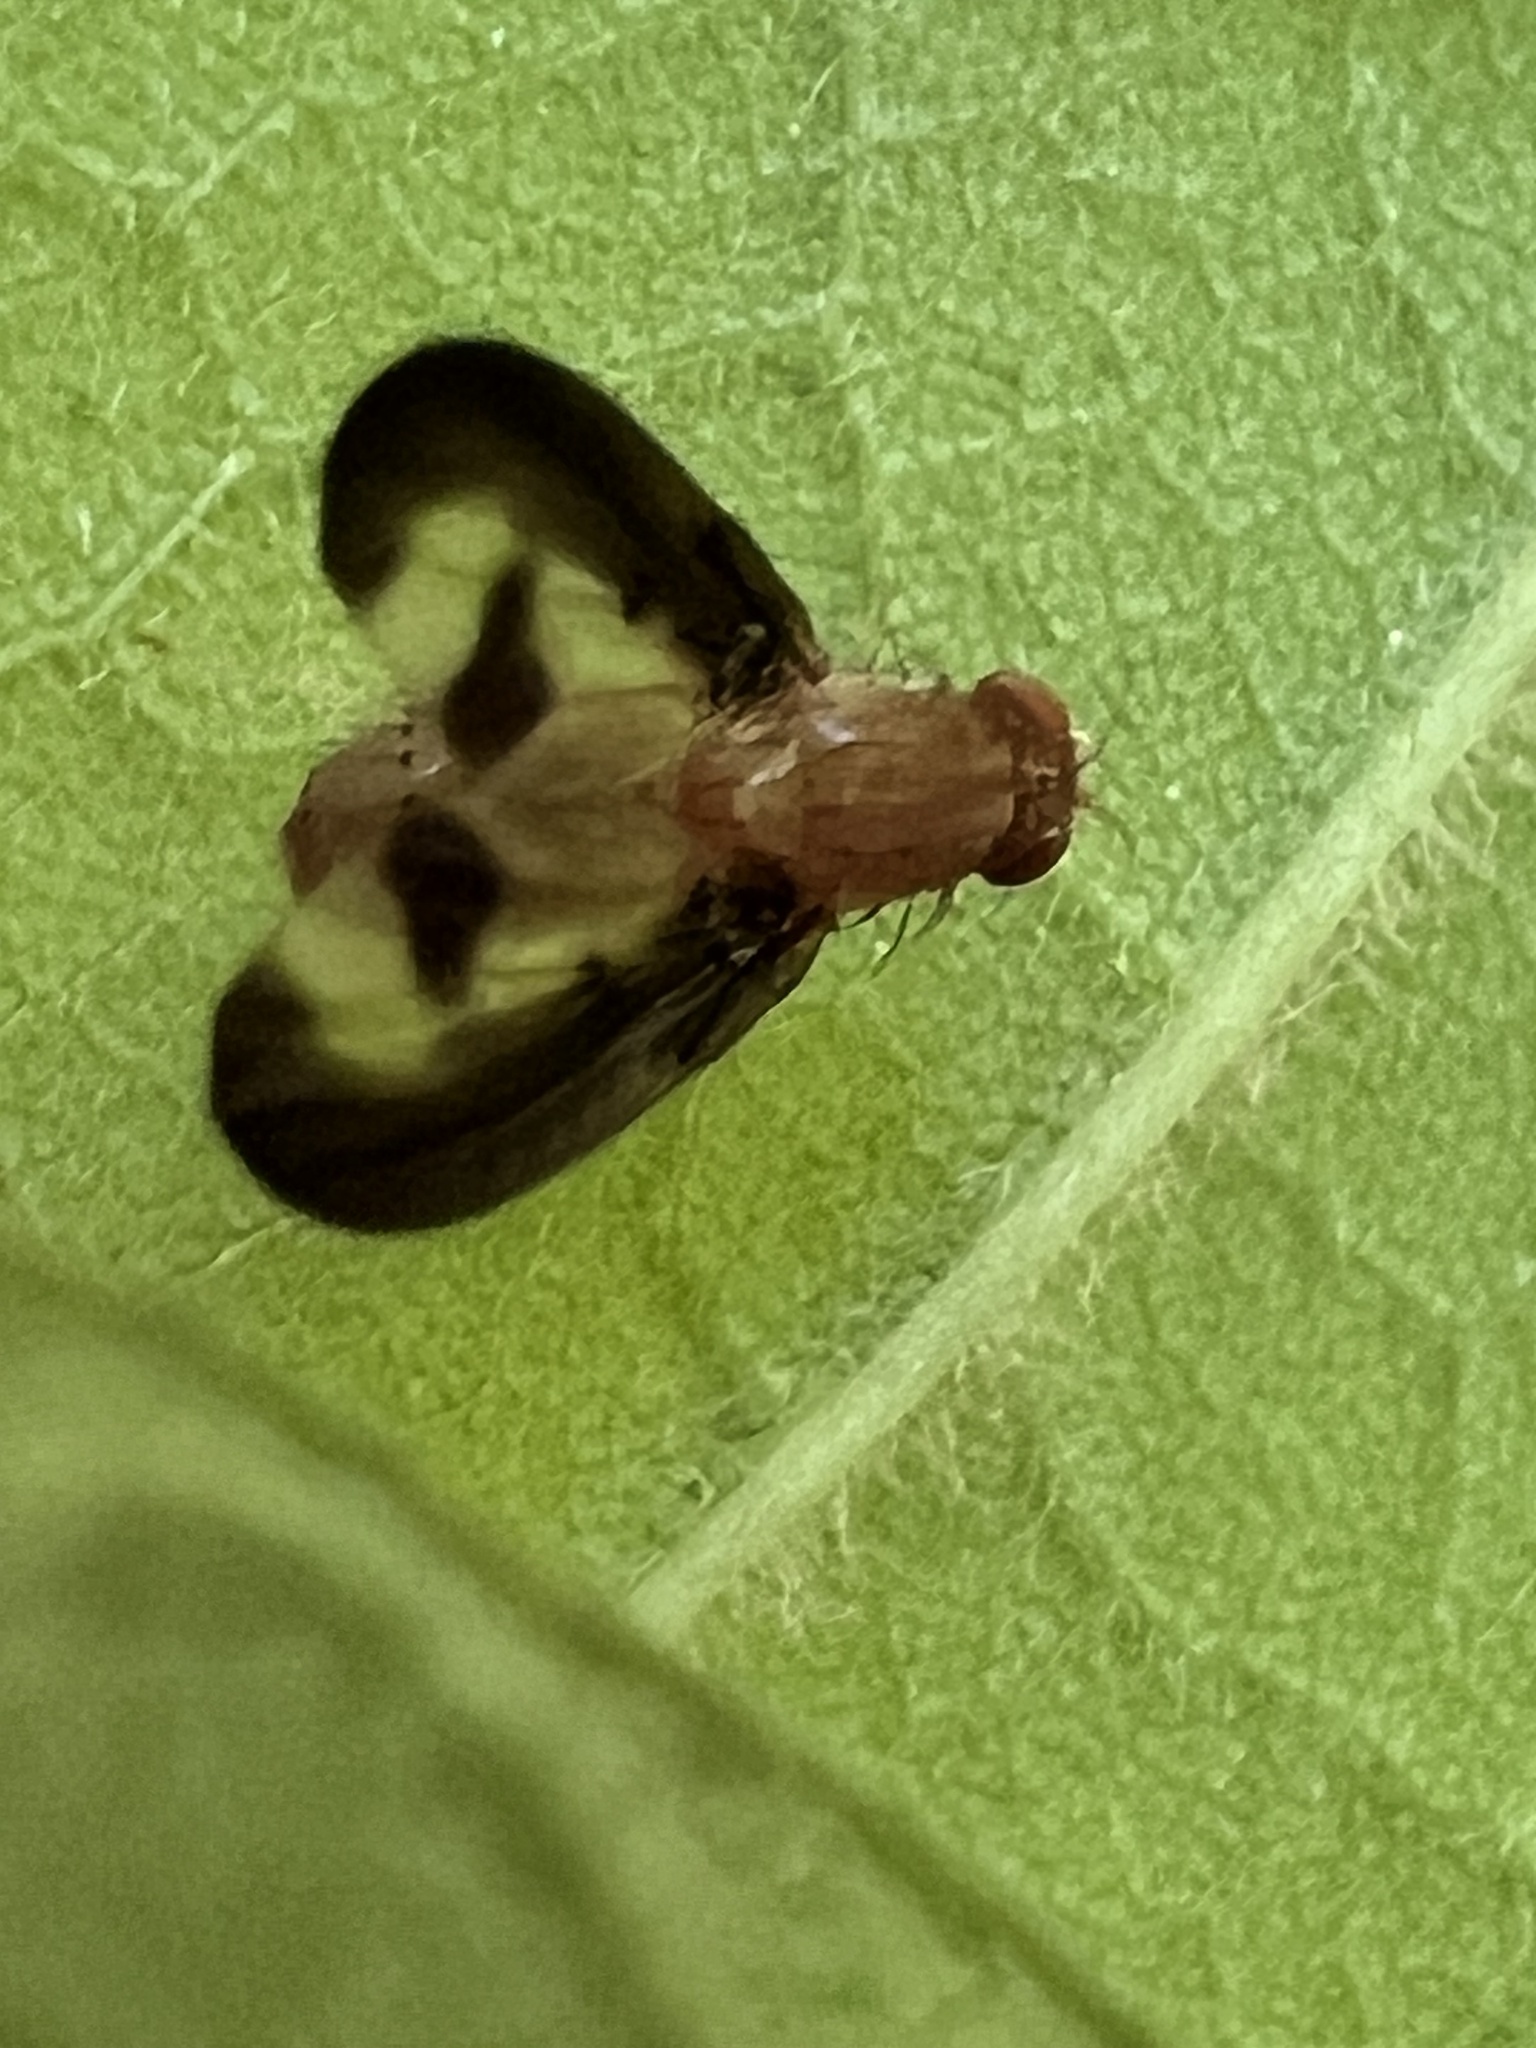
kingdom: Animalia
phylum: Arthropoda
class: Insecta
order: Diptera
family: Pallopteridae
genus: Toxonevra
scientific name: Toxonevra superba
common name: Antlered flutter fly
